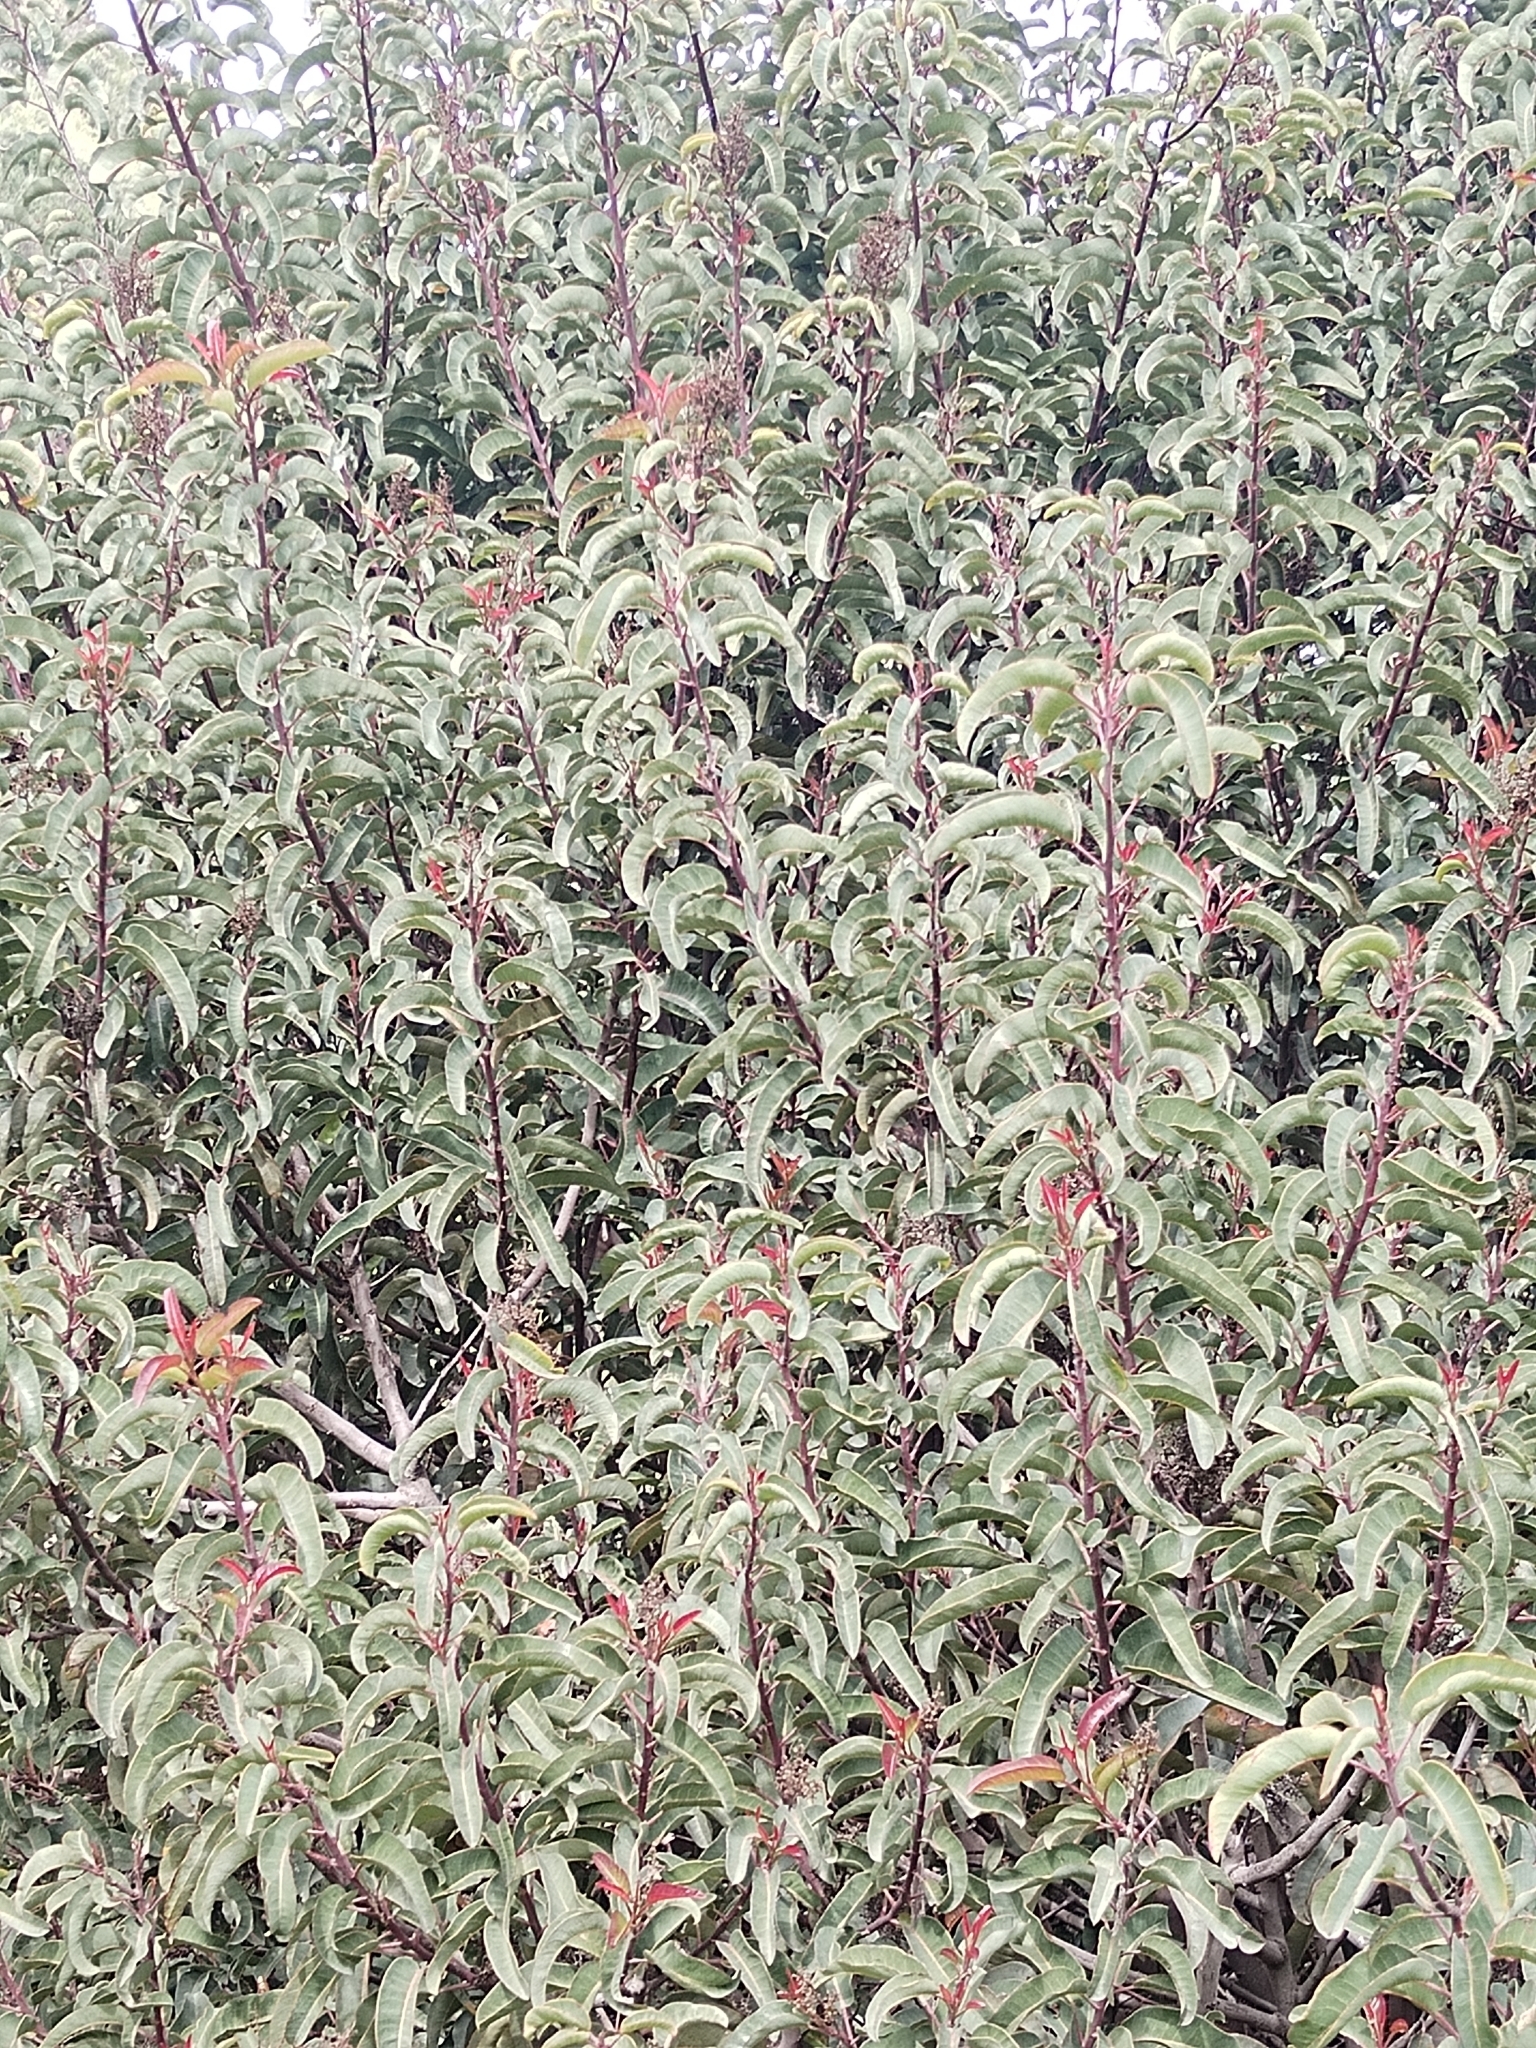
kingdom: Plantae
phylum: Tracheophyta
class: Magnoliopsida
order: Sapindales
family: Anacardiaceae
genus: Malosma
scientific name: Malosma laurina
